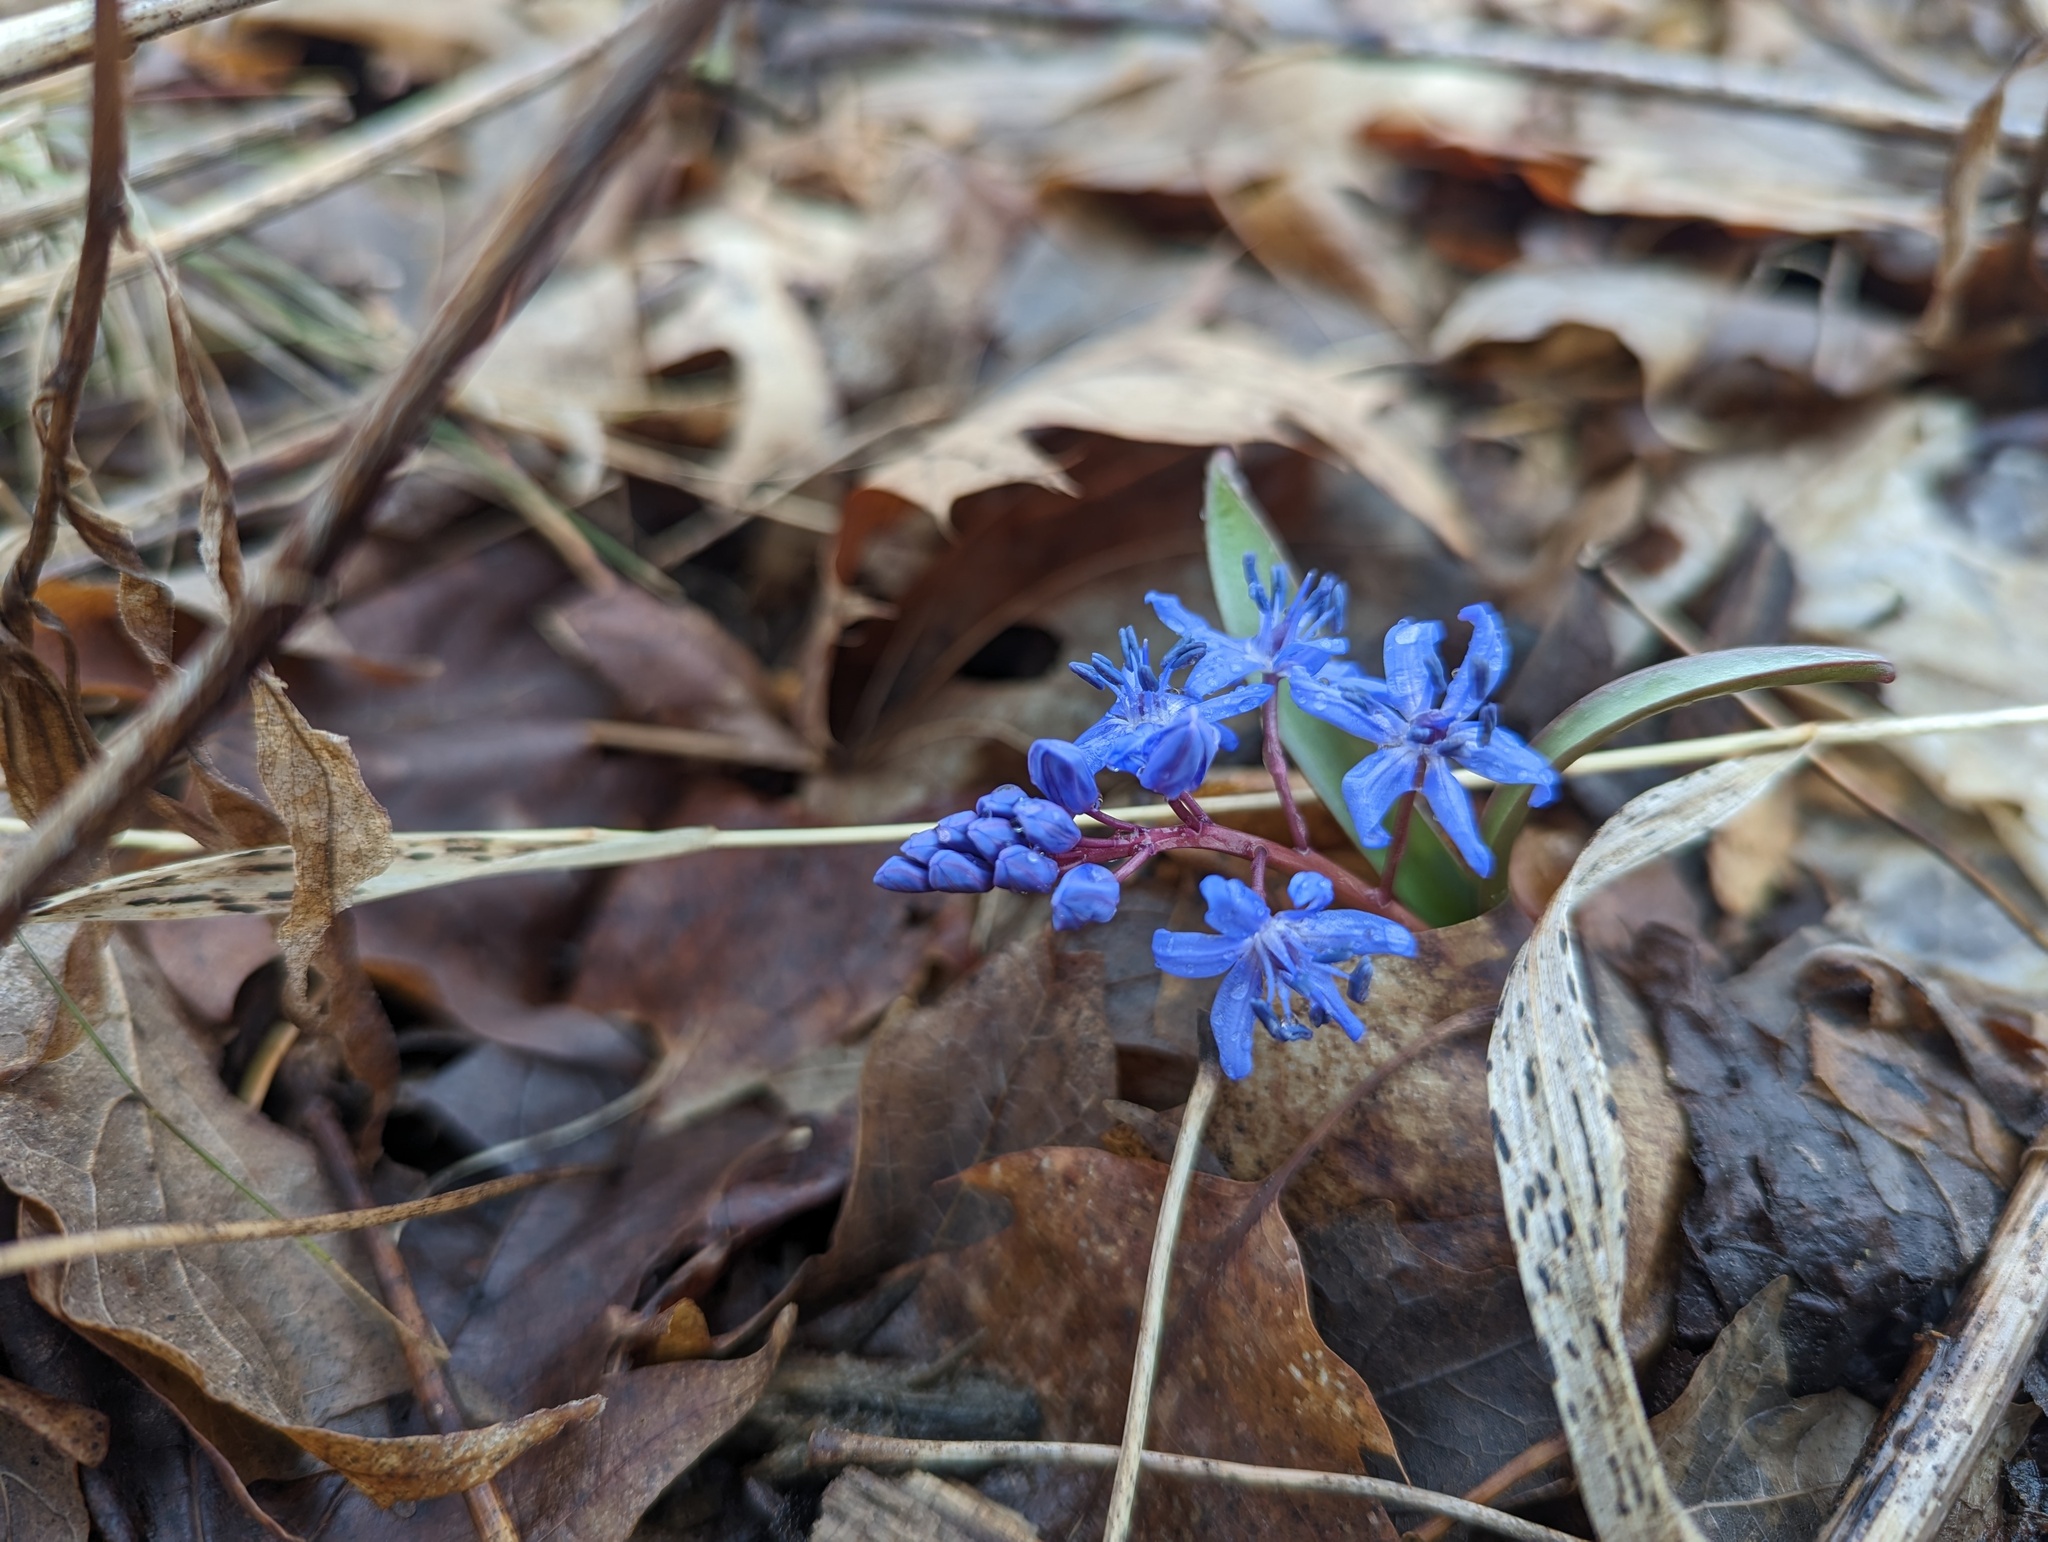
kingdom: Plantae
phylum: Tracheophyta
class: Liliopsida
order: Asparagales
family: Asparagaceae
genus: Scilla
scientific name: Scilla bifolia
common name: Alpine squill
